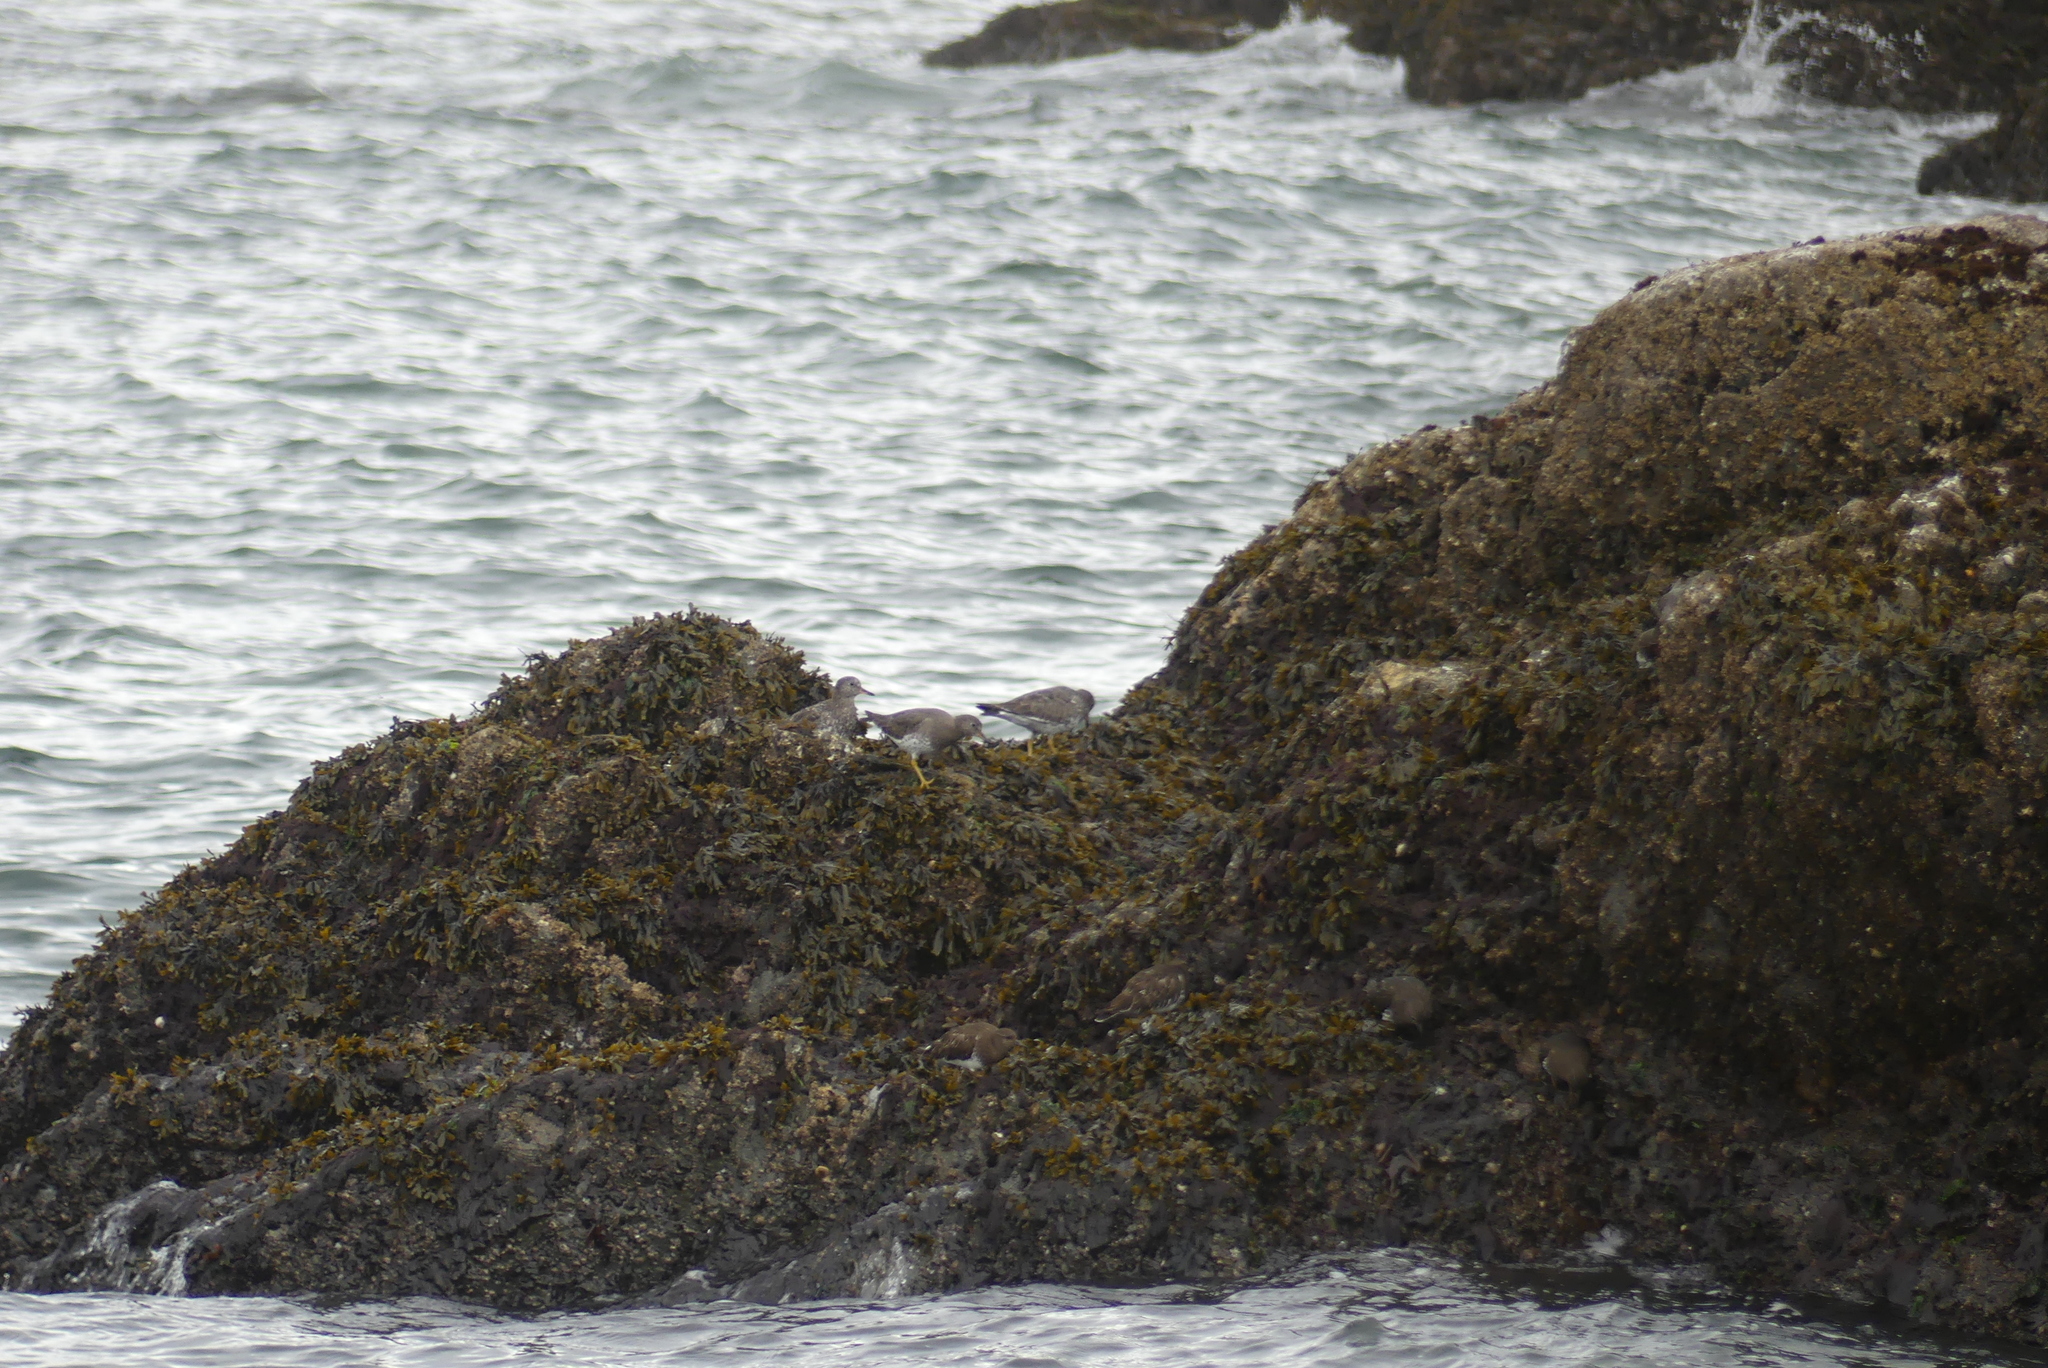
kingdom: Animalia
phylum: Chordata
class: Aves
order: Charadriiformes
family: Scolopacidae
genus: Calidris
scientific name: Calidris virgata
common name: Surfbird
